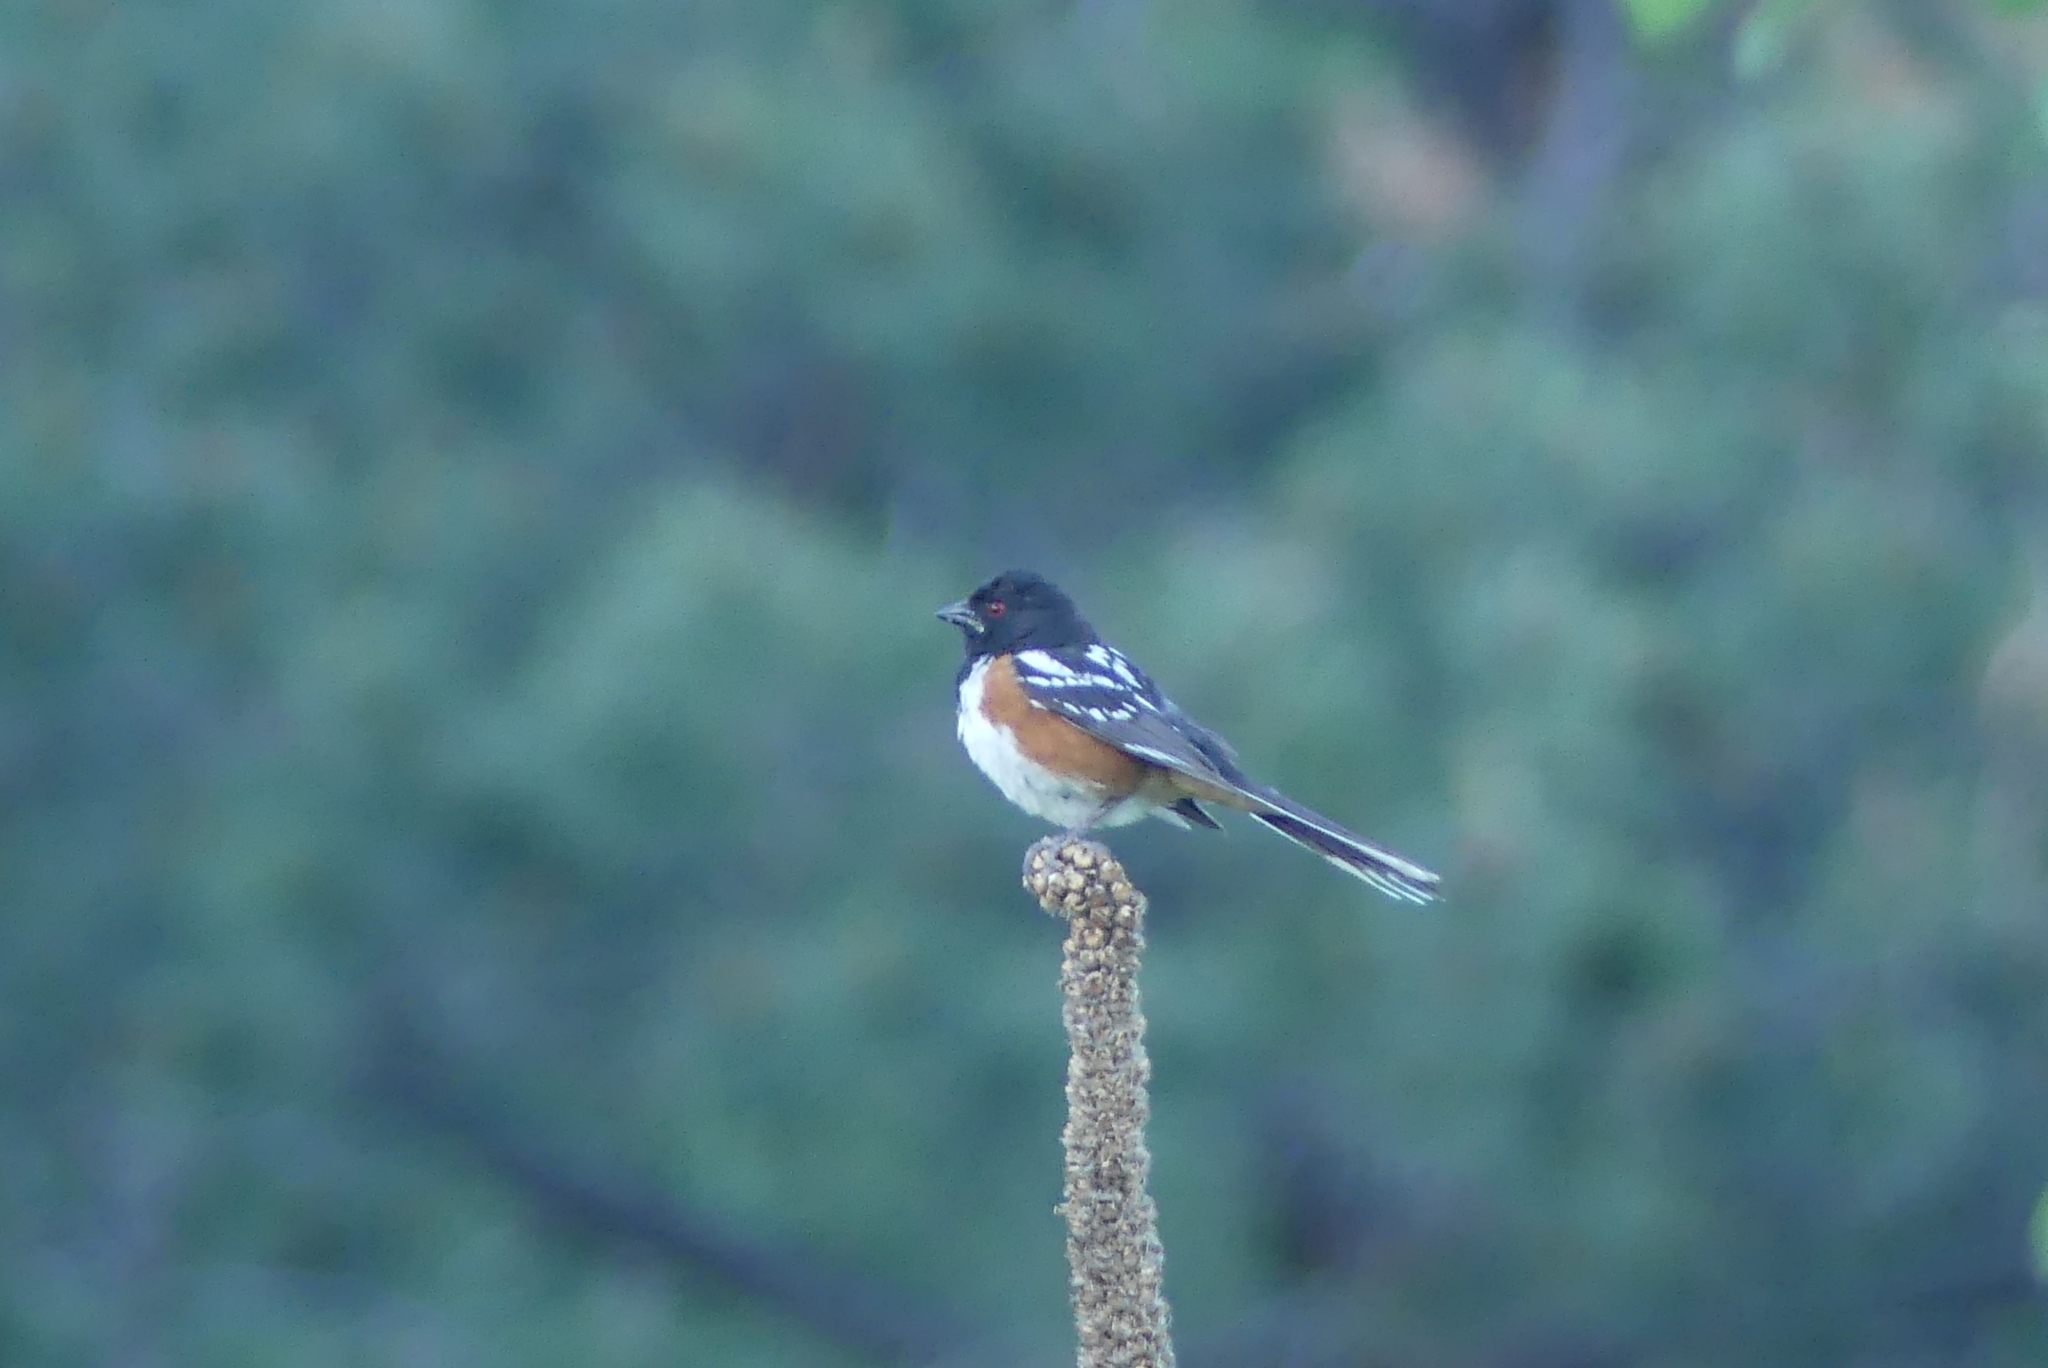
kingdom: Animalia
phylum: Chordata
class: Aves
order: Passeriformes
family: Passerellidae
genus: Pipilo
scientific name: Pipilo maculatus
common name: Spotted towhee
